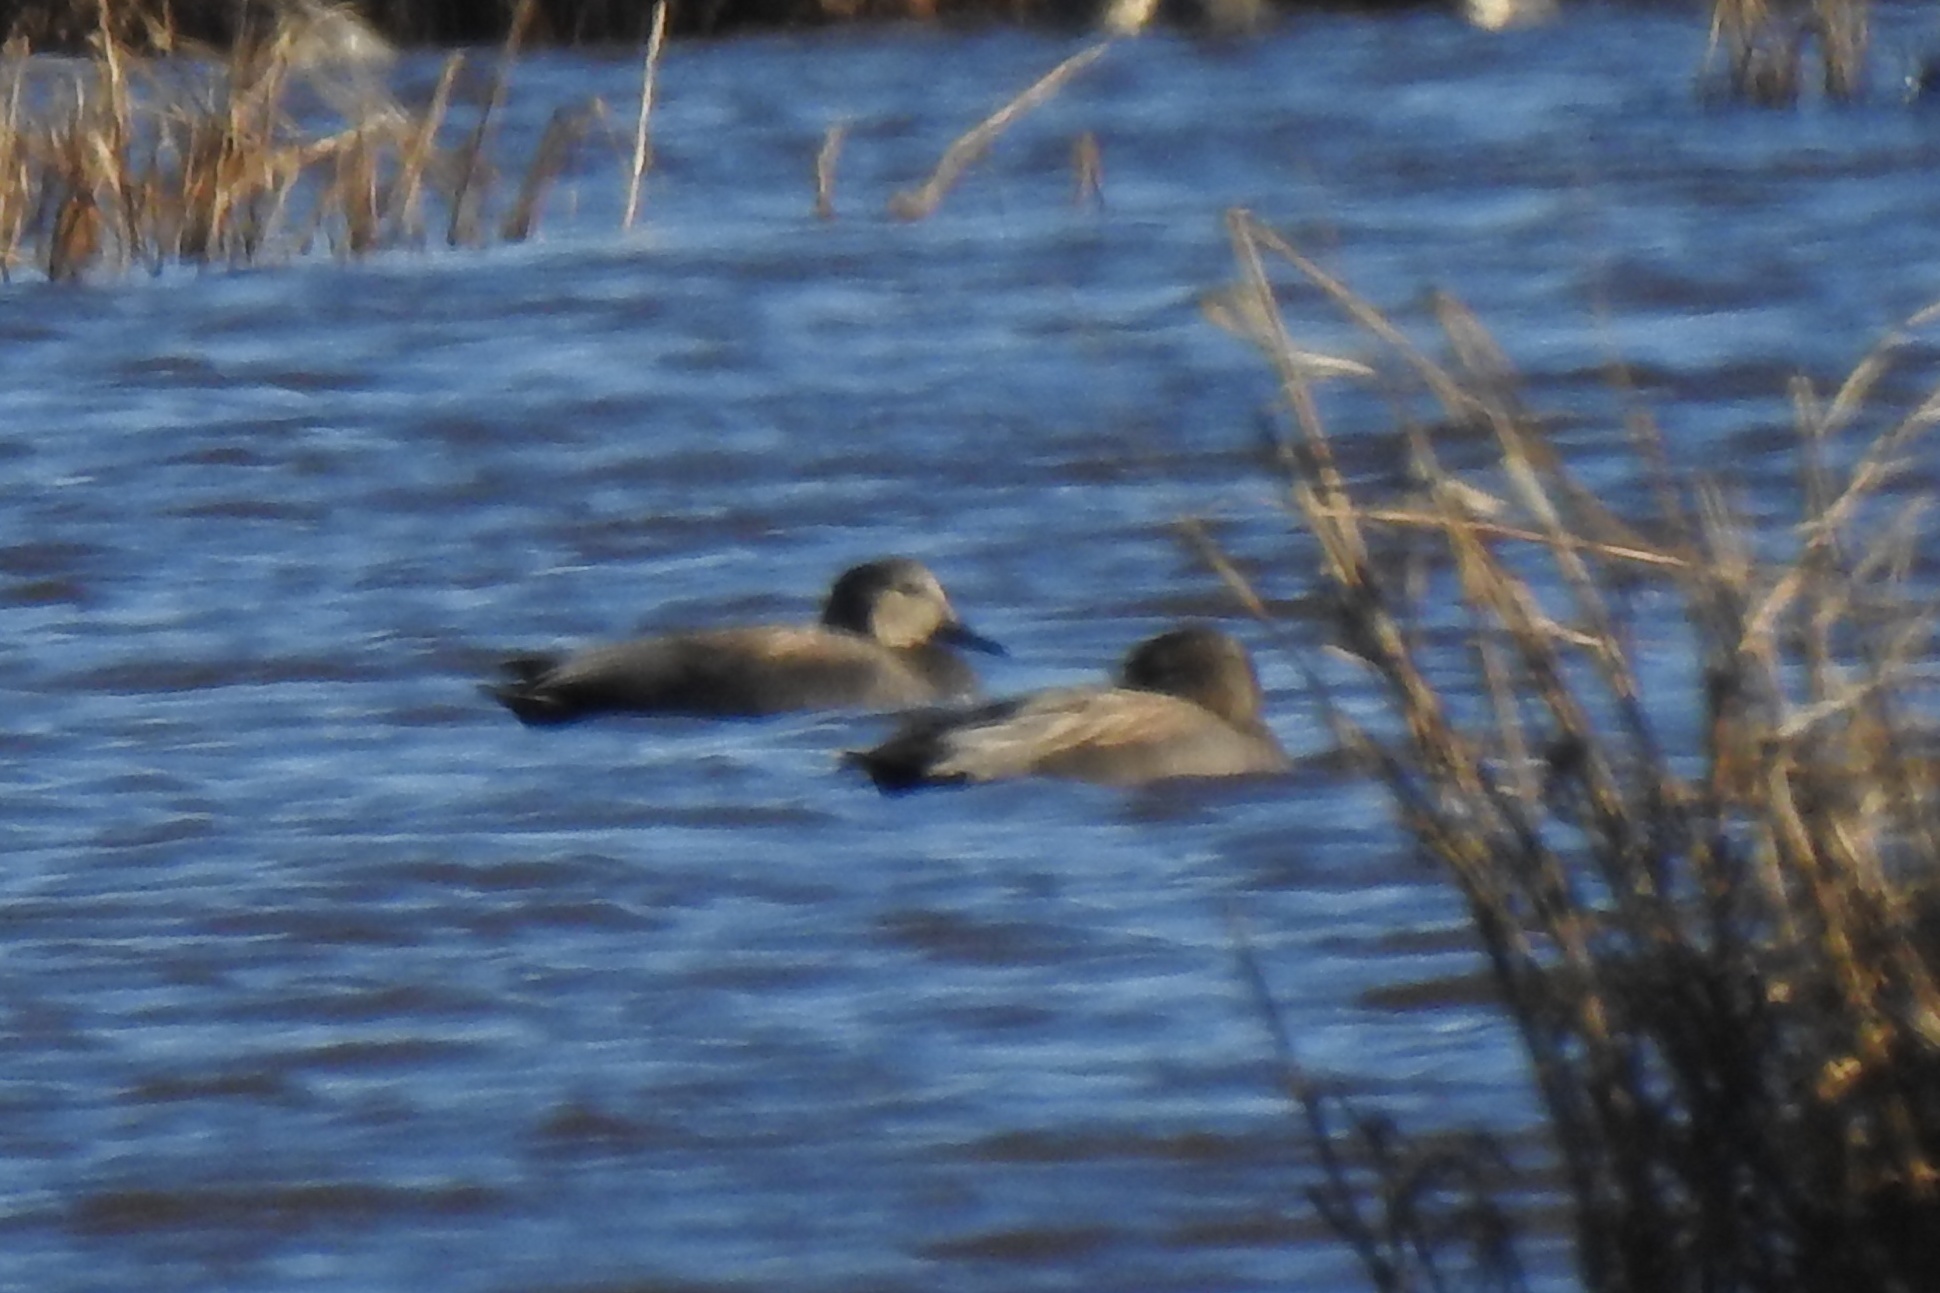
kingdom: Animalia
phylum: Chordata
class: Aves
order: Anseriformes
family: Anatidae
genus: Mareca
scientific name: Mareca strepera
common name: Gadwall
